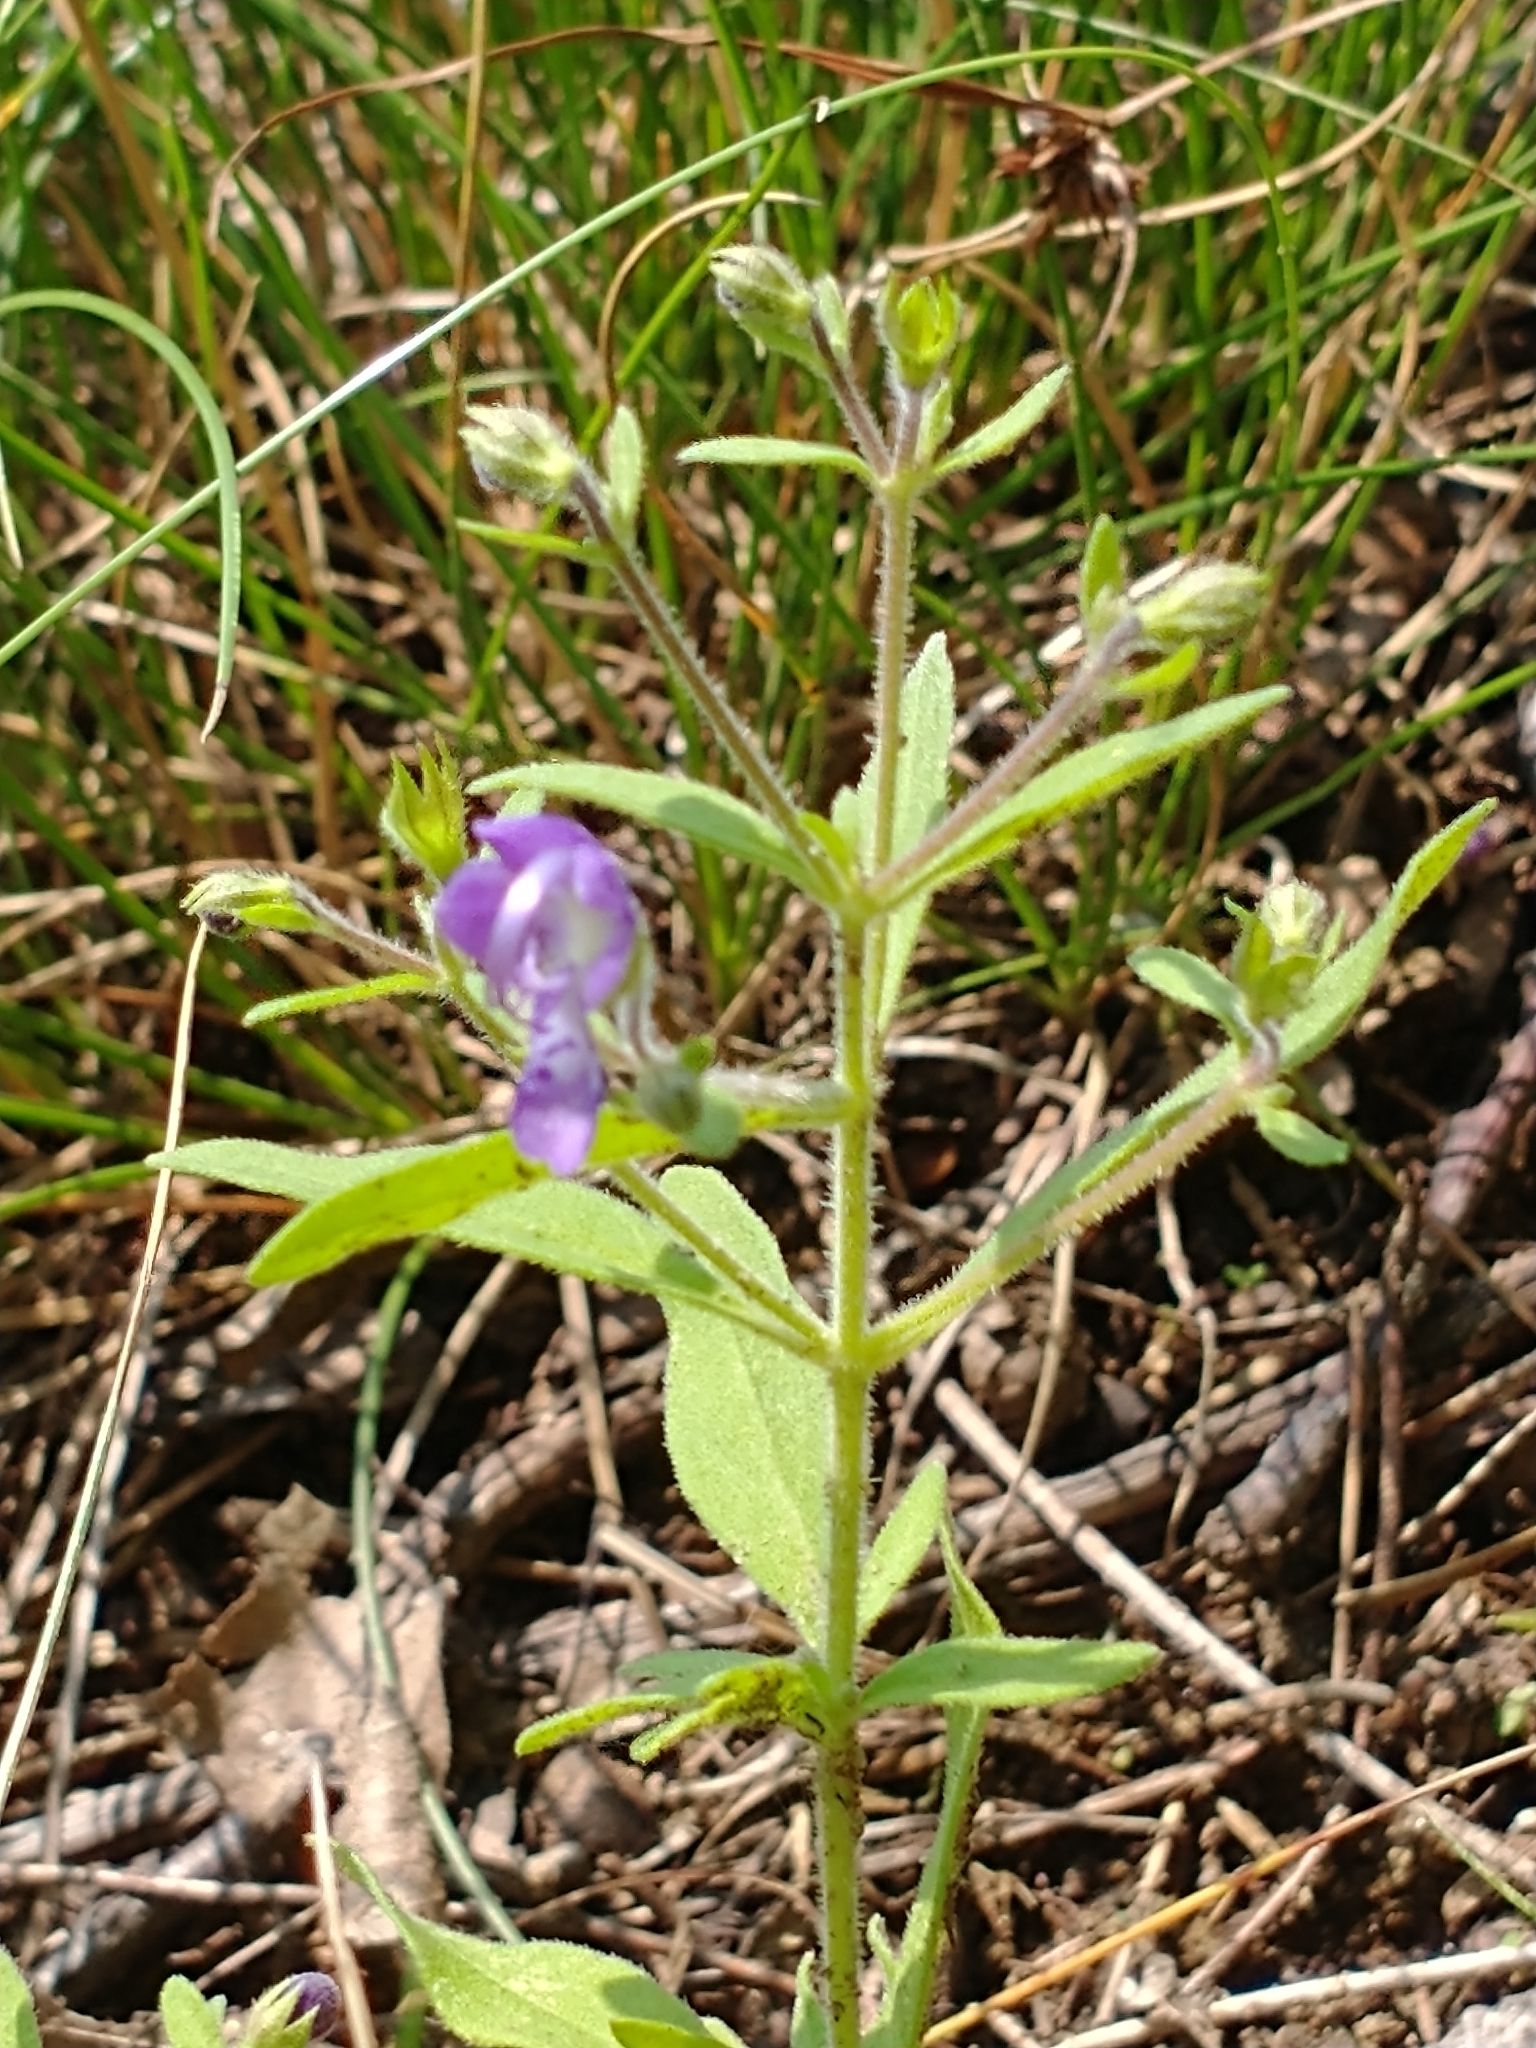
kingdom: Plantae
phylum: Tracheophyta
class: Magnoliopsida
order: Lamiales
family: Lamiaceae
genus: Trichostema
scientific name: Trichostema dichotomum
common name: Bastard pennyroyal
